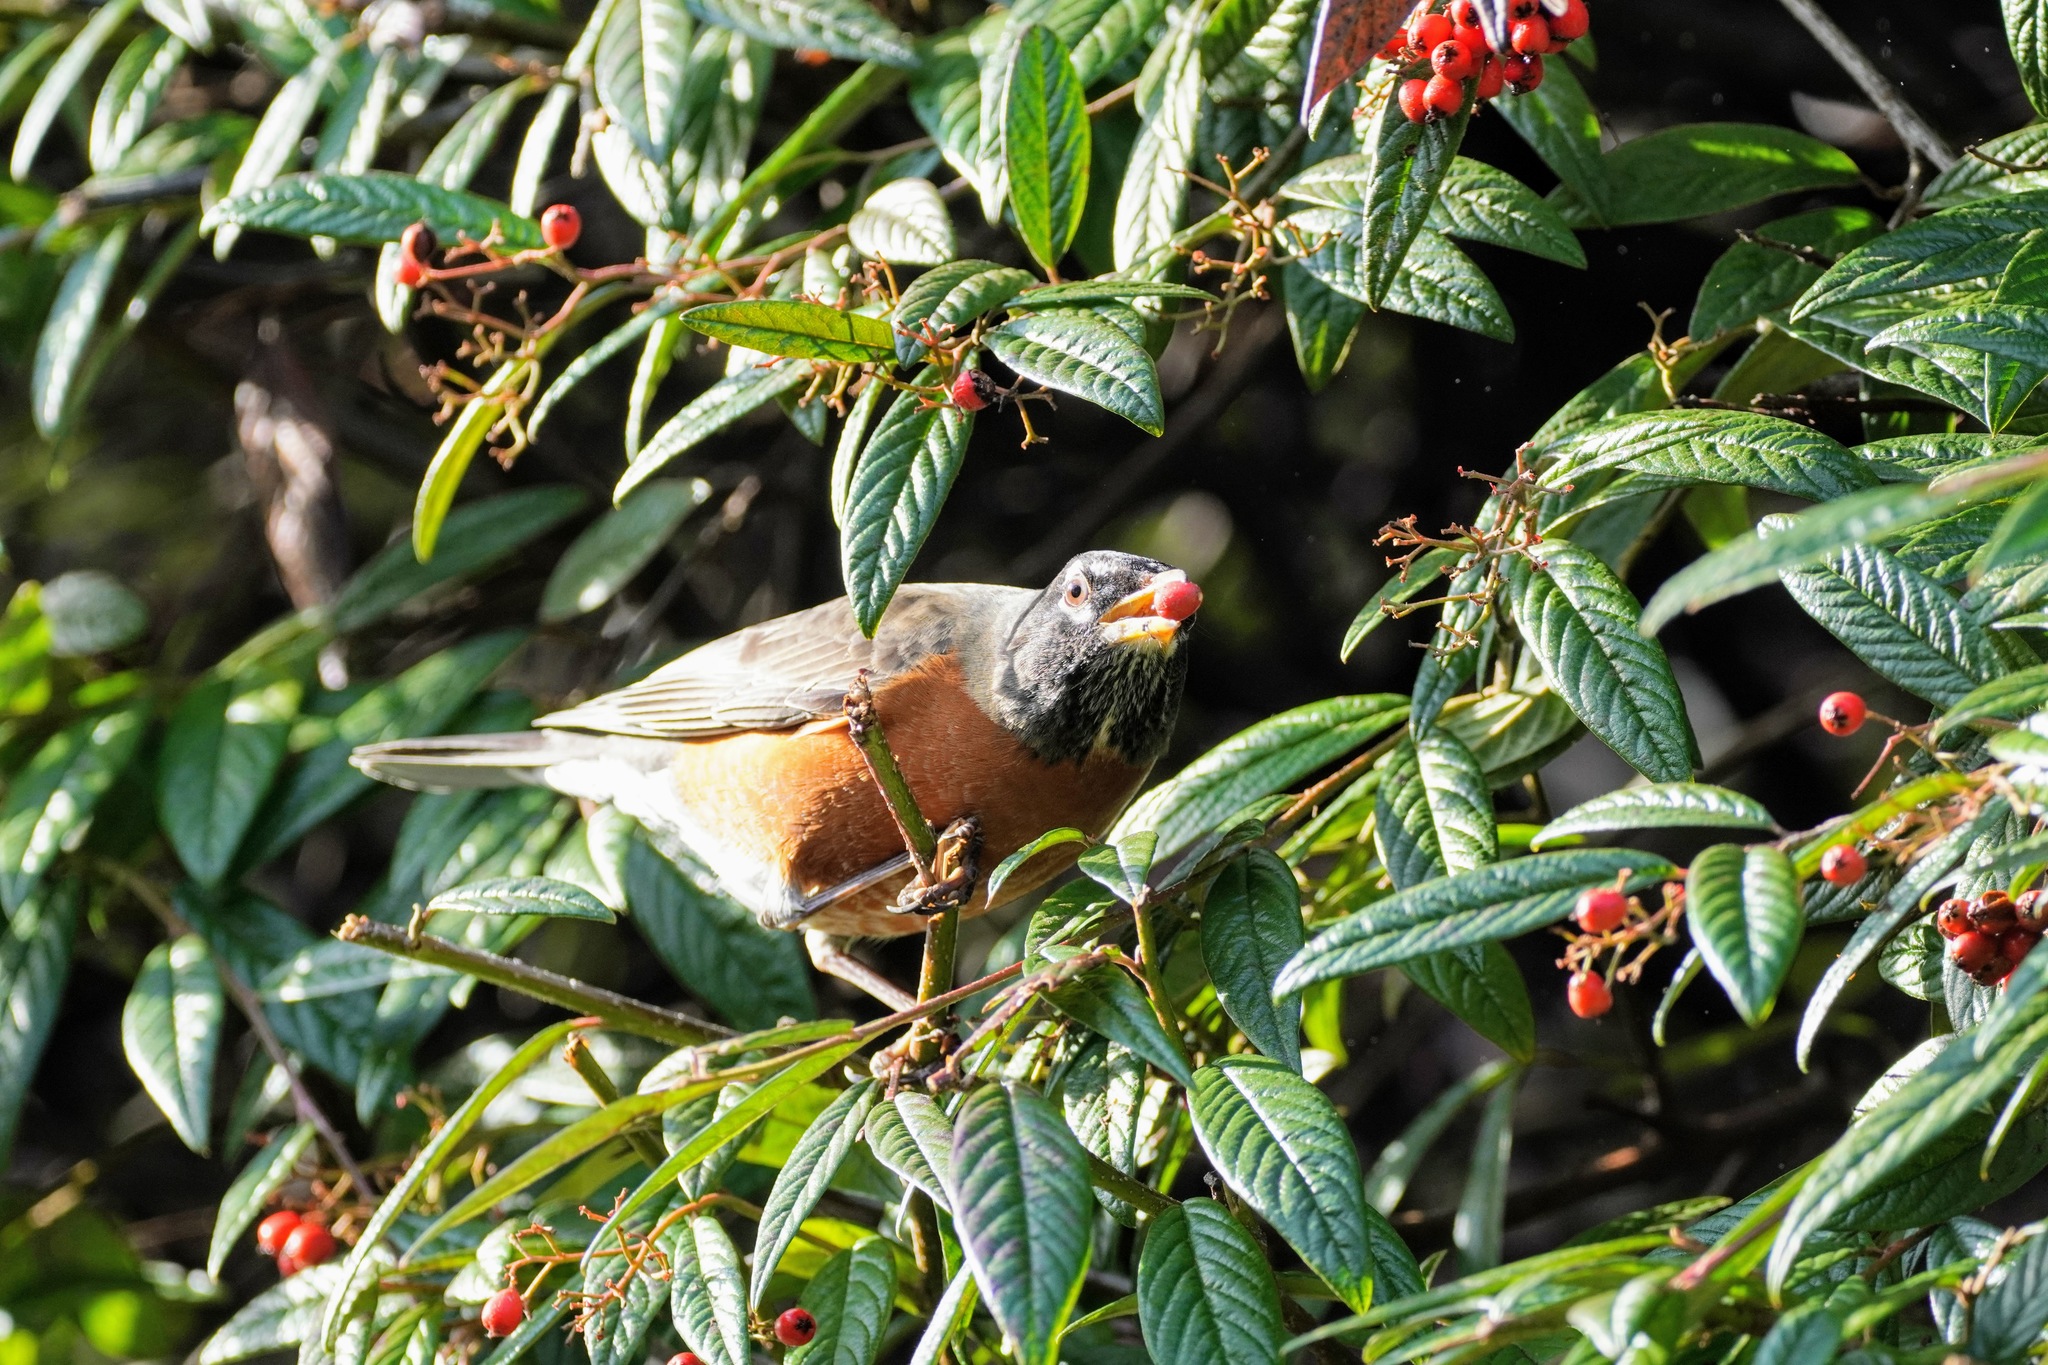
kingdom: Animalia
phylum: Chordata
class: Aves
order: Passeriformes
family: Turdidae
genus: Turdus
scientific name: Turdus migratorius
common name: American robin
